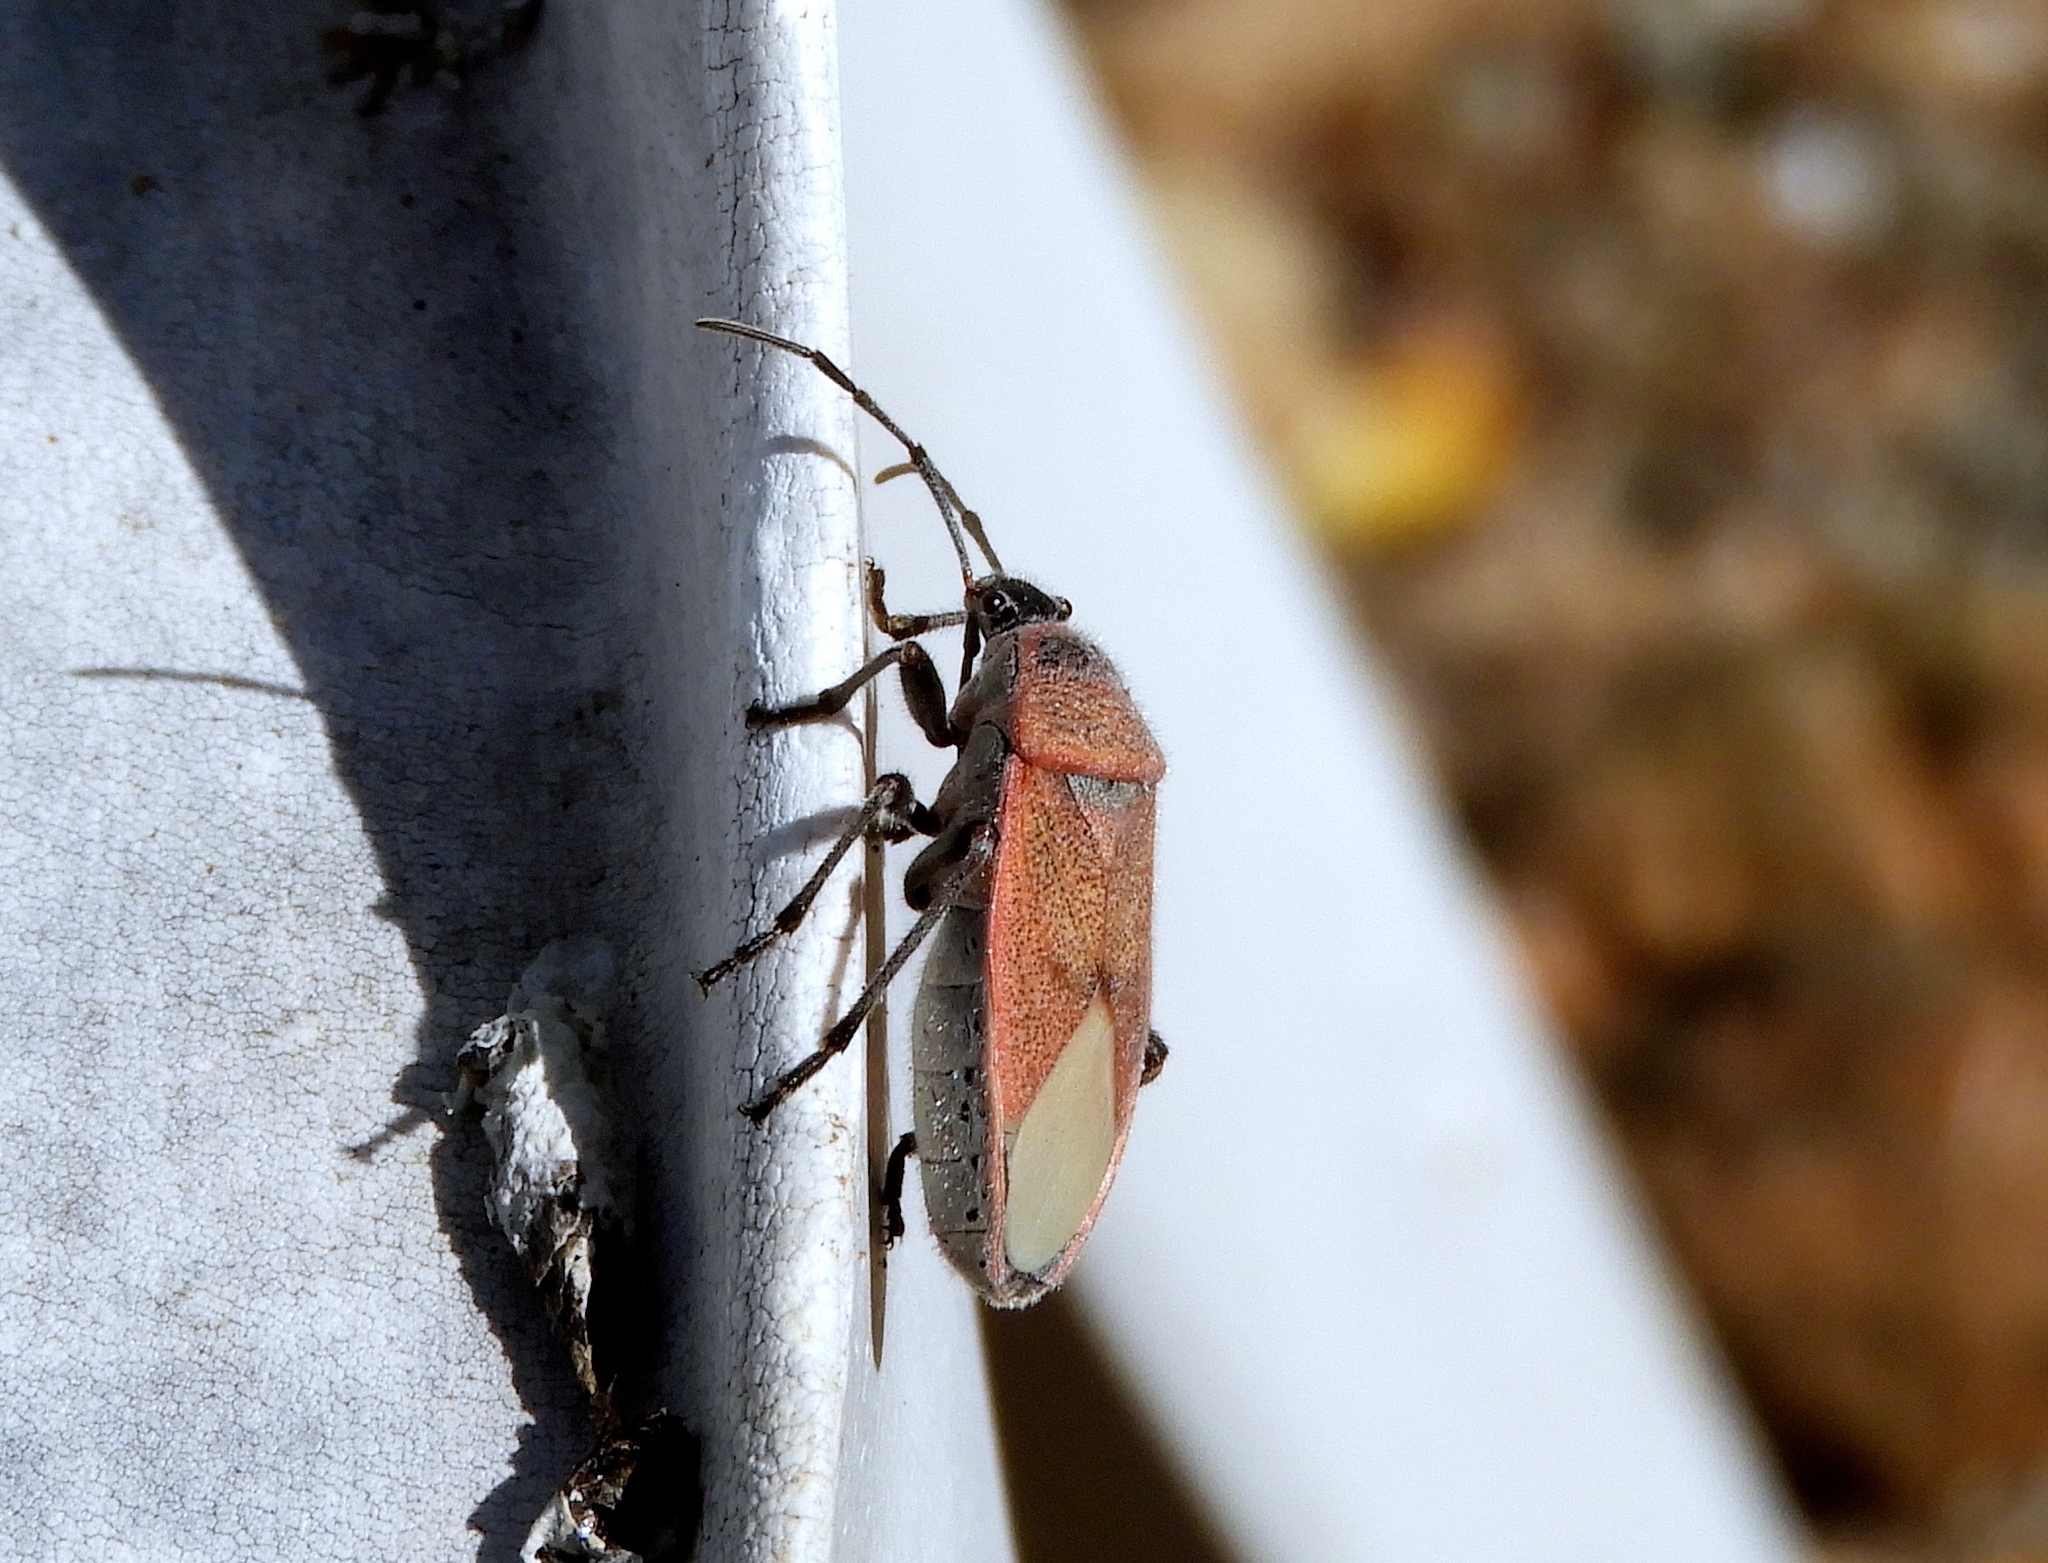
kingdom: Animalia
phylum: Arthropoda
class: Insecta
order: Hemiptera
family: Largidae
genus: Largus
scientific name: Largus subligatus
